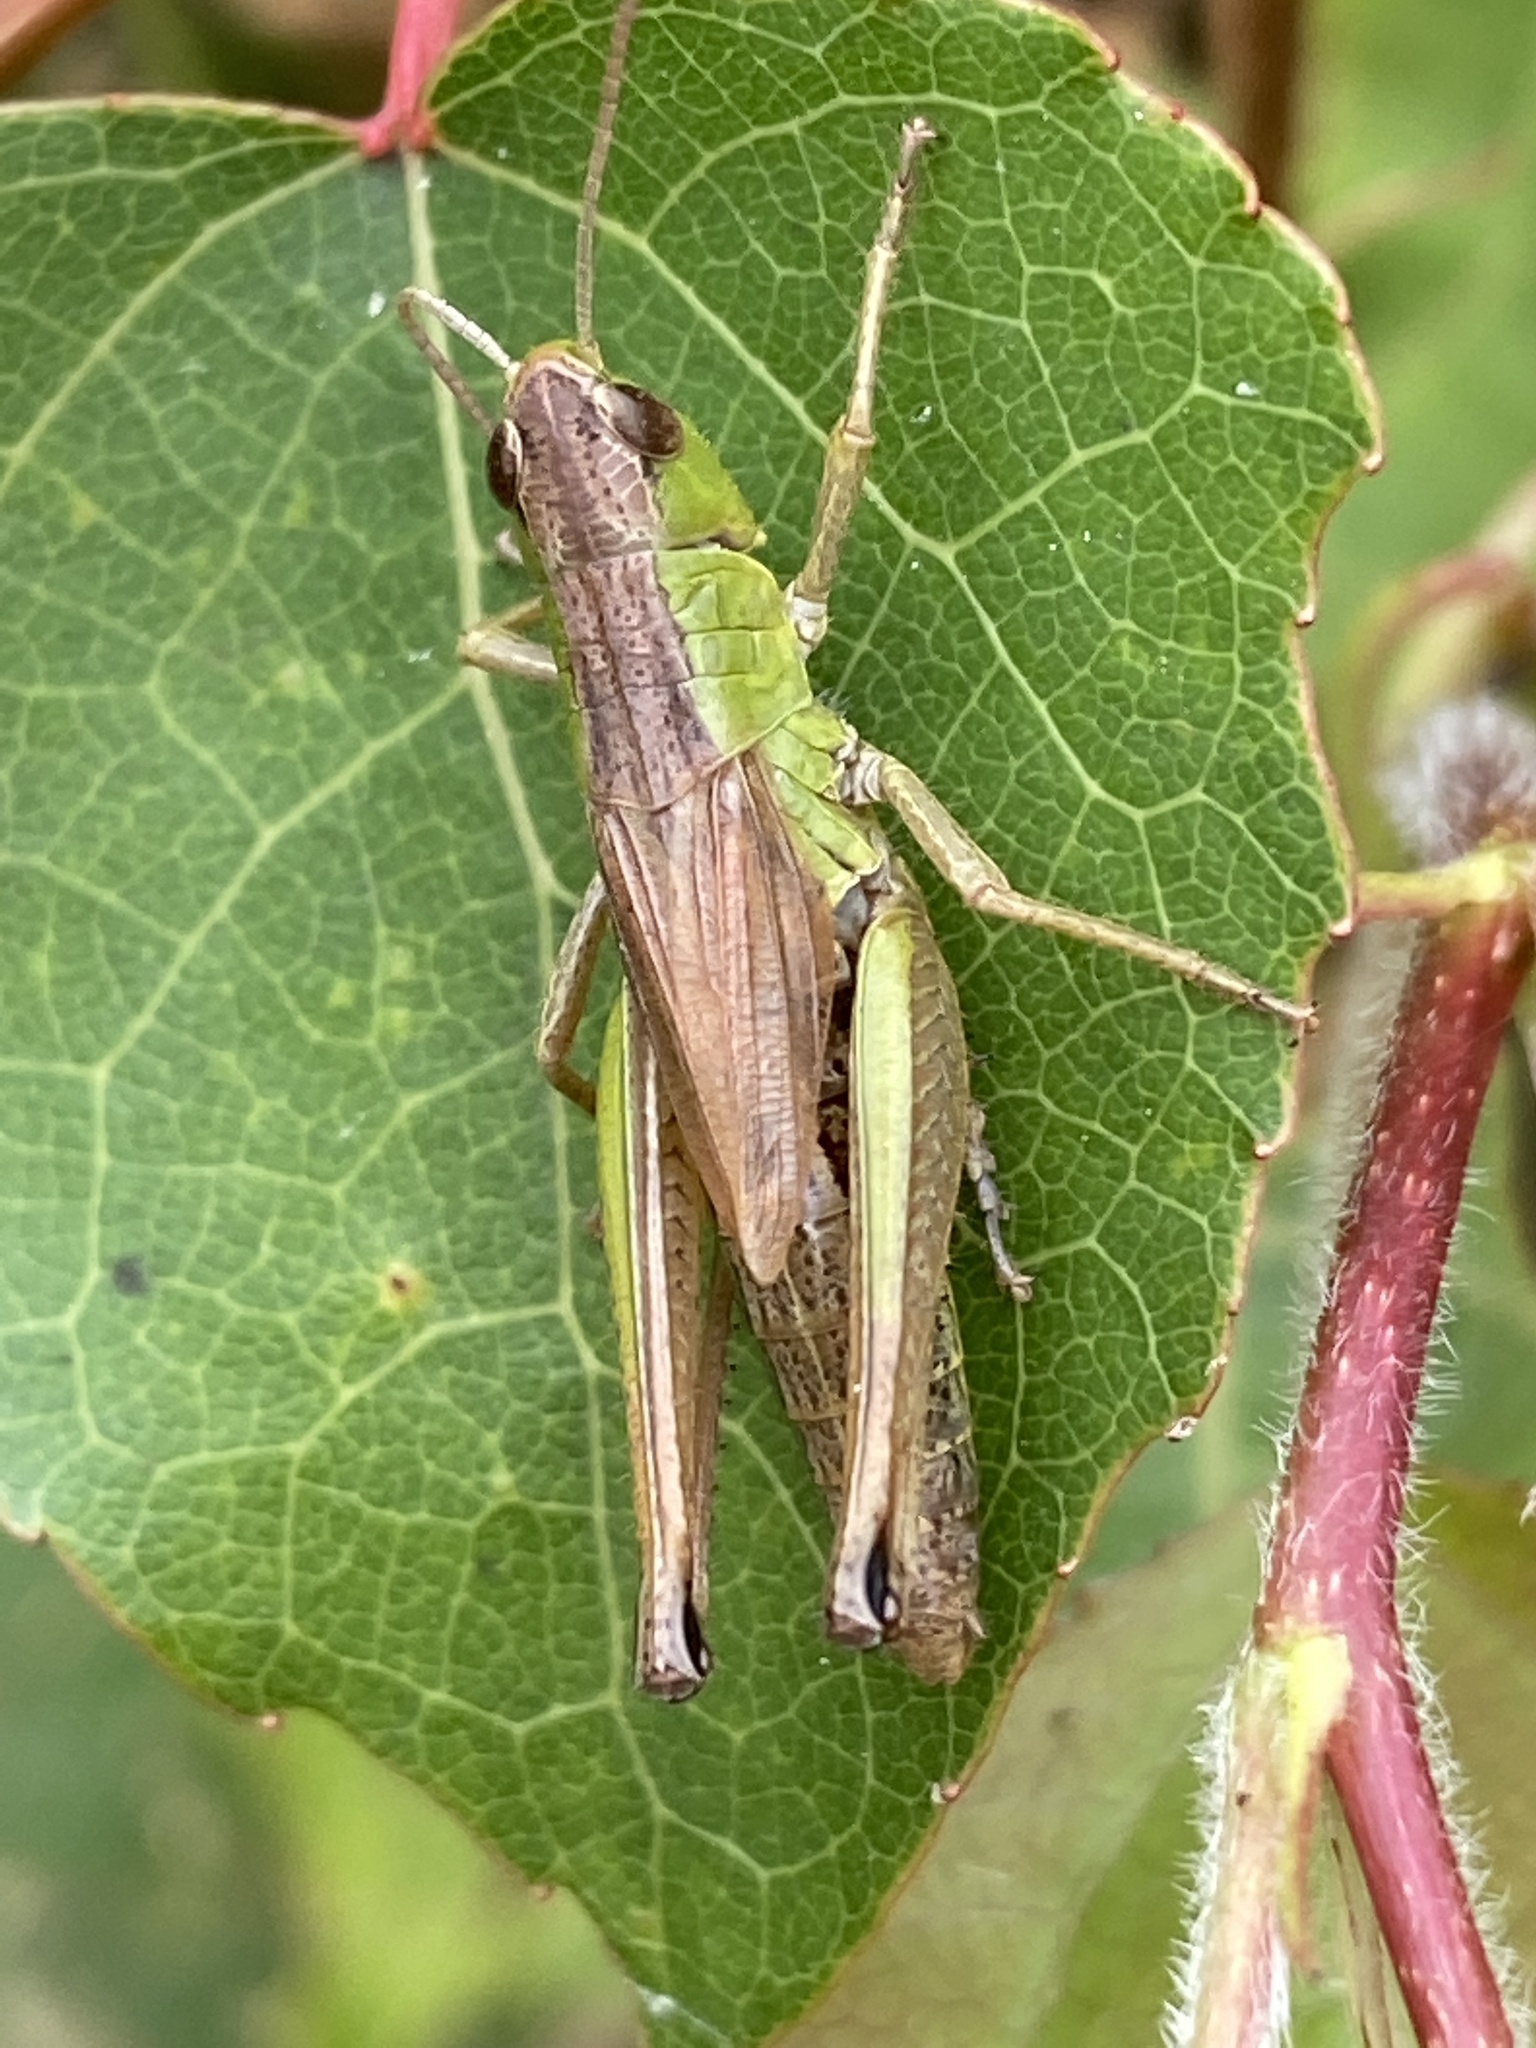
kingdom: Animalia
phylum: Arthropoda
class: Insecta
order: Orthoptera
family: Acrididae
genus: Pseudochorthippus
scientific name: Pseudochorthippus parallelus
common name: Meadow grasshopper
